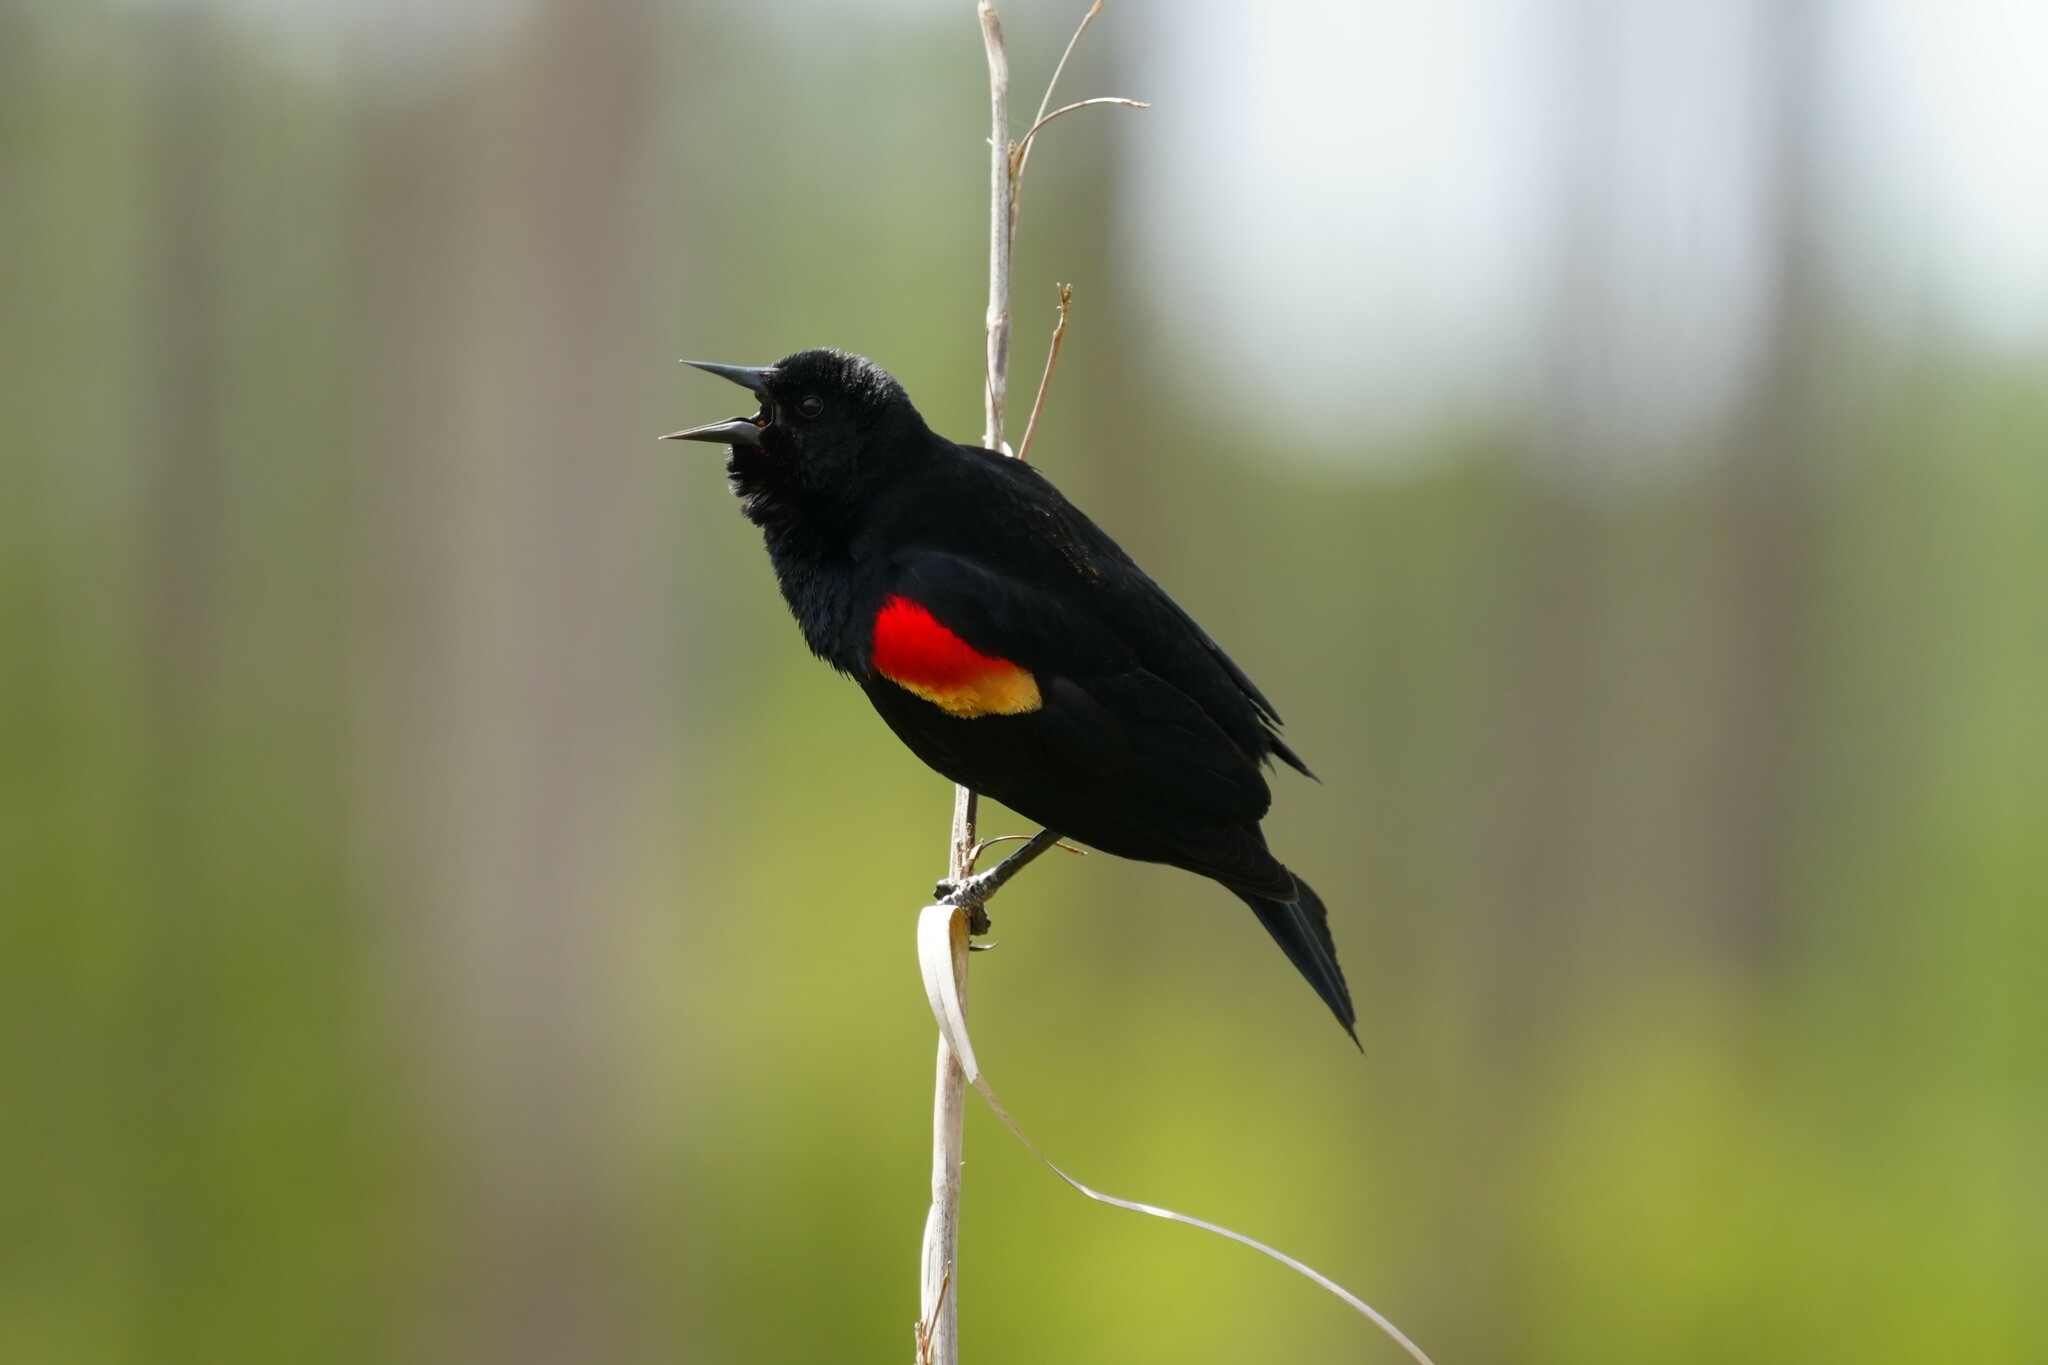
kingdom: Animalia
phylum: Chordata
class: Aves
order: Passeriformes
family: Icteridae
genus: Agelaius
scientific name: Agelaius phoeniceus
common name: Red-winged blackbird
